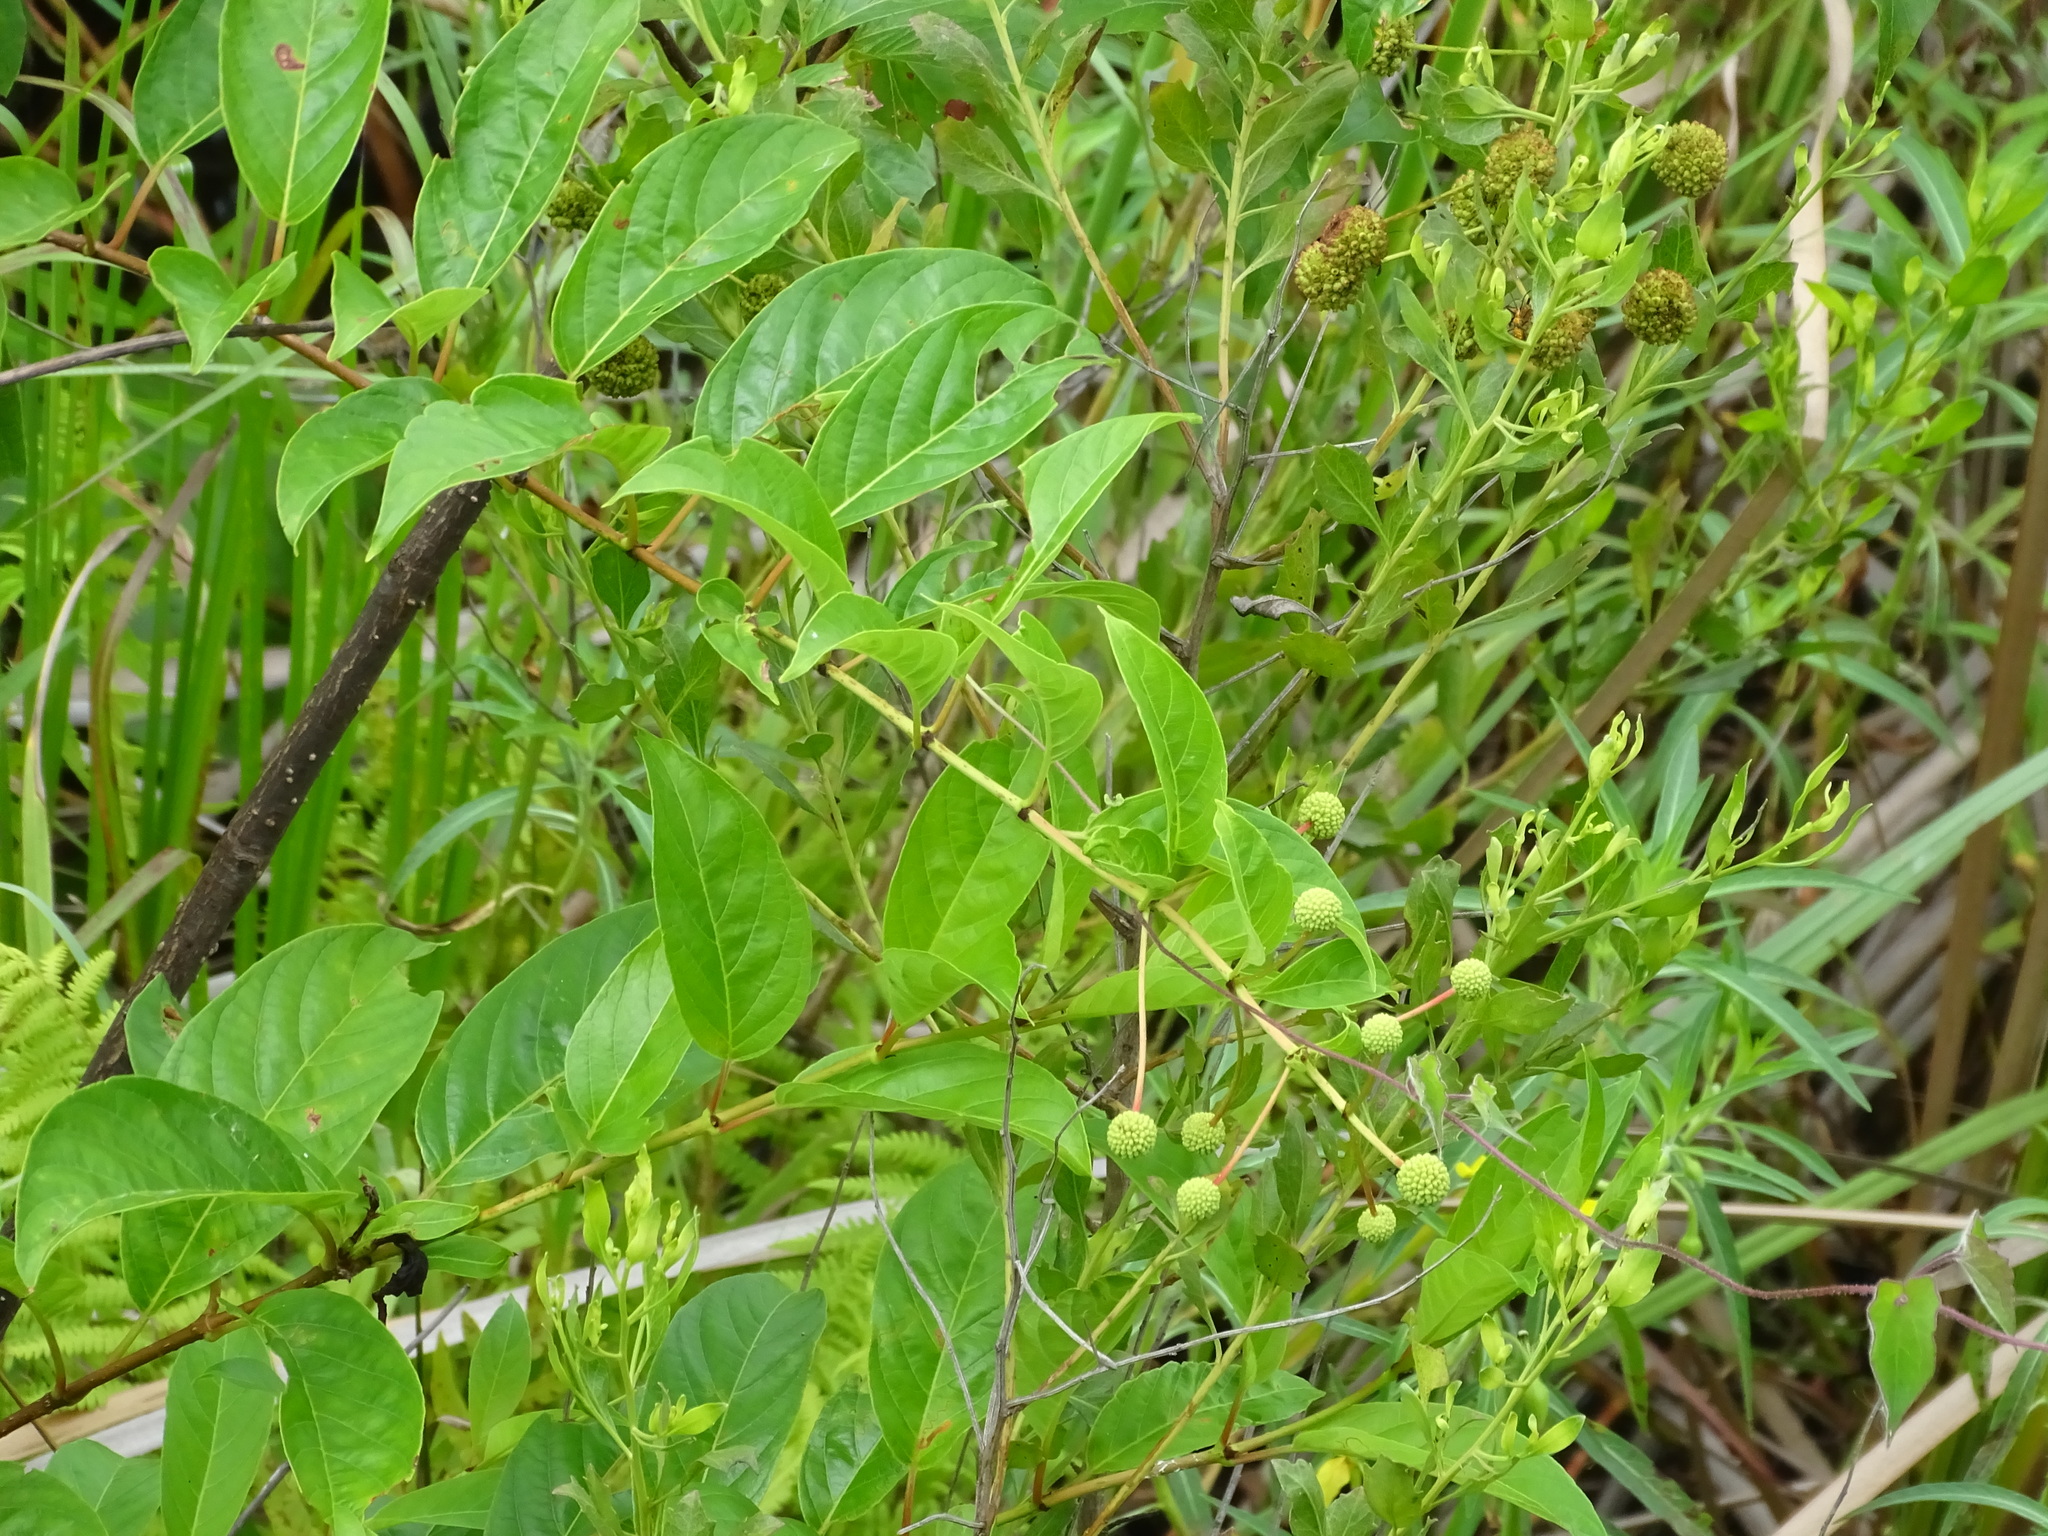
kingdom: Plantae
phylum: Tracheophyta
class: Magnoliopsida
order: Gentianales
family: Rubiaceae
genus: Cephalanthus
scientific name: Cephalanthus occidentalis
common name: Button-willow
